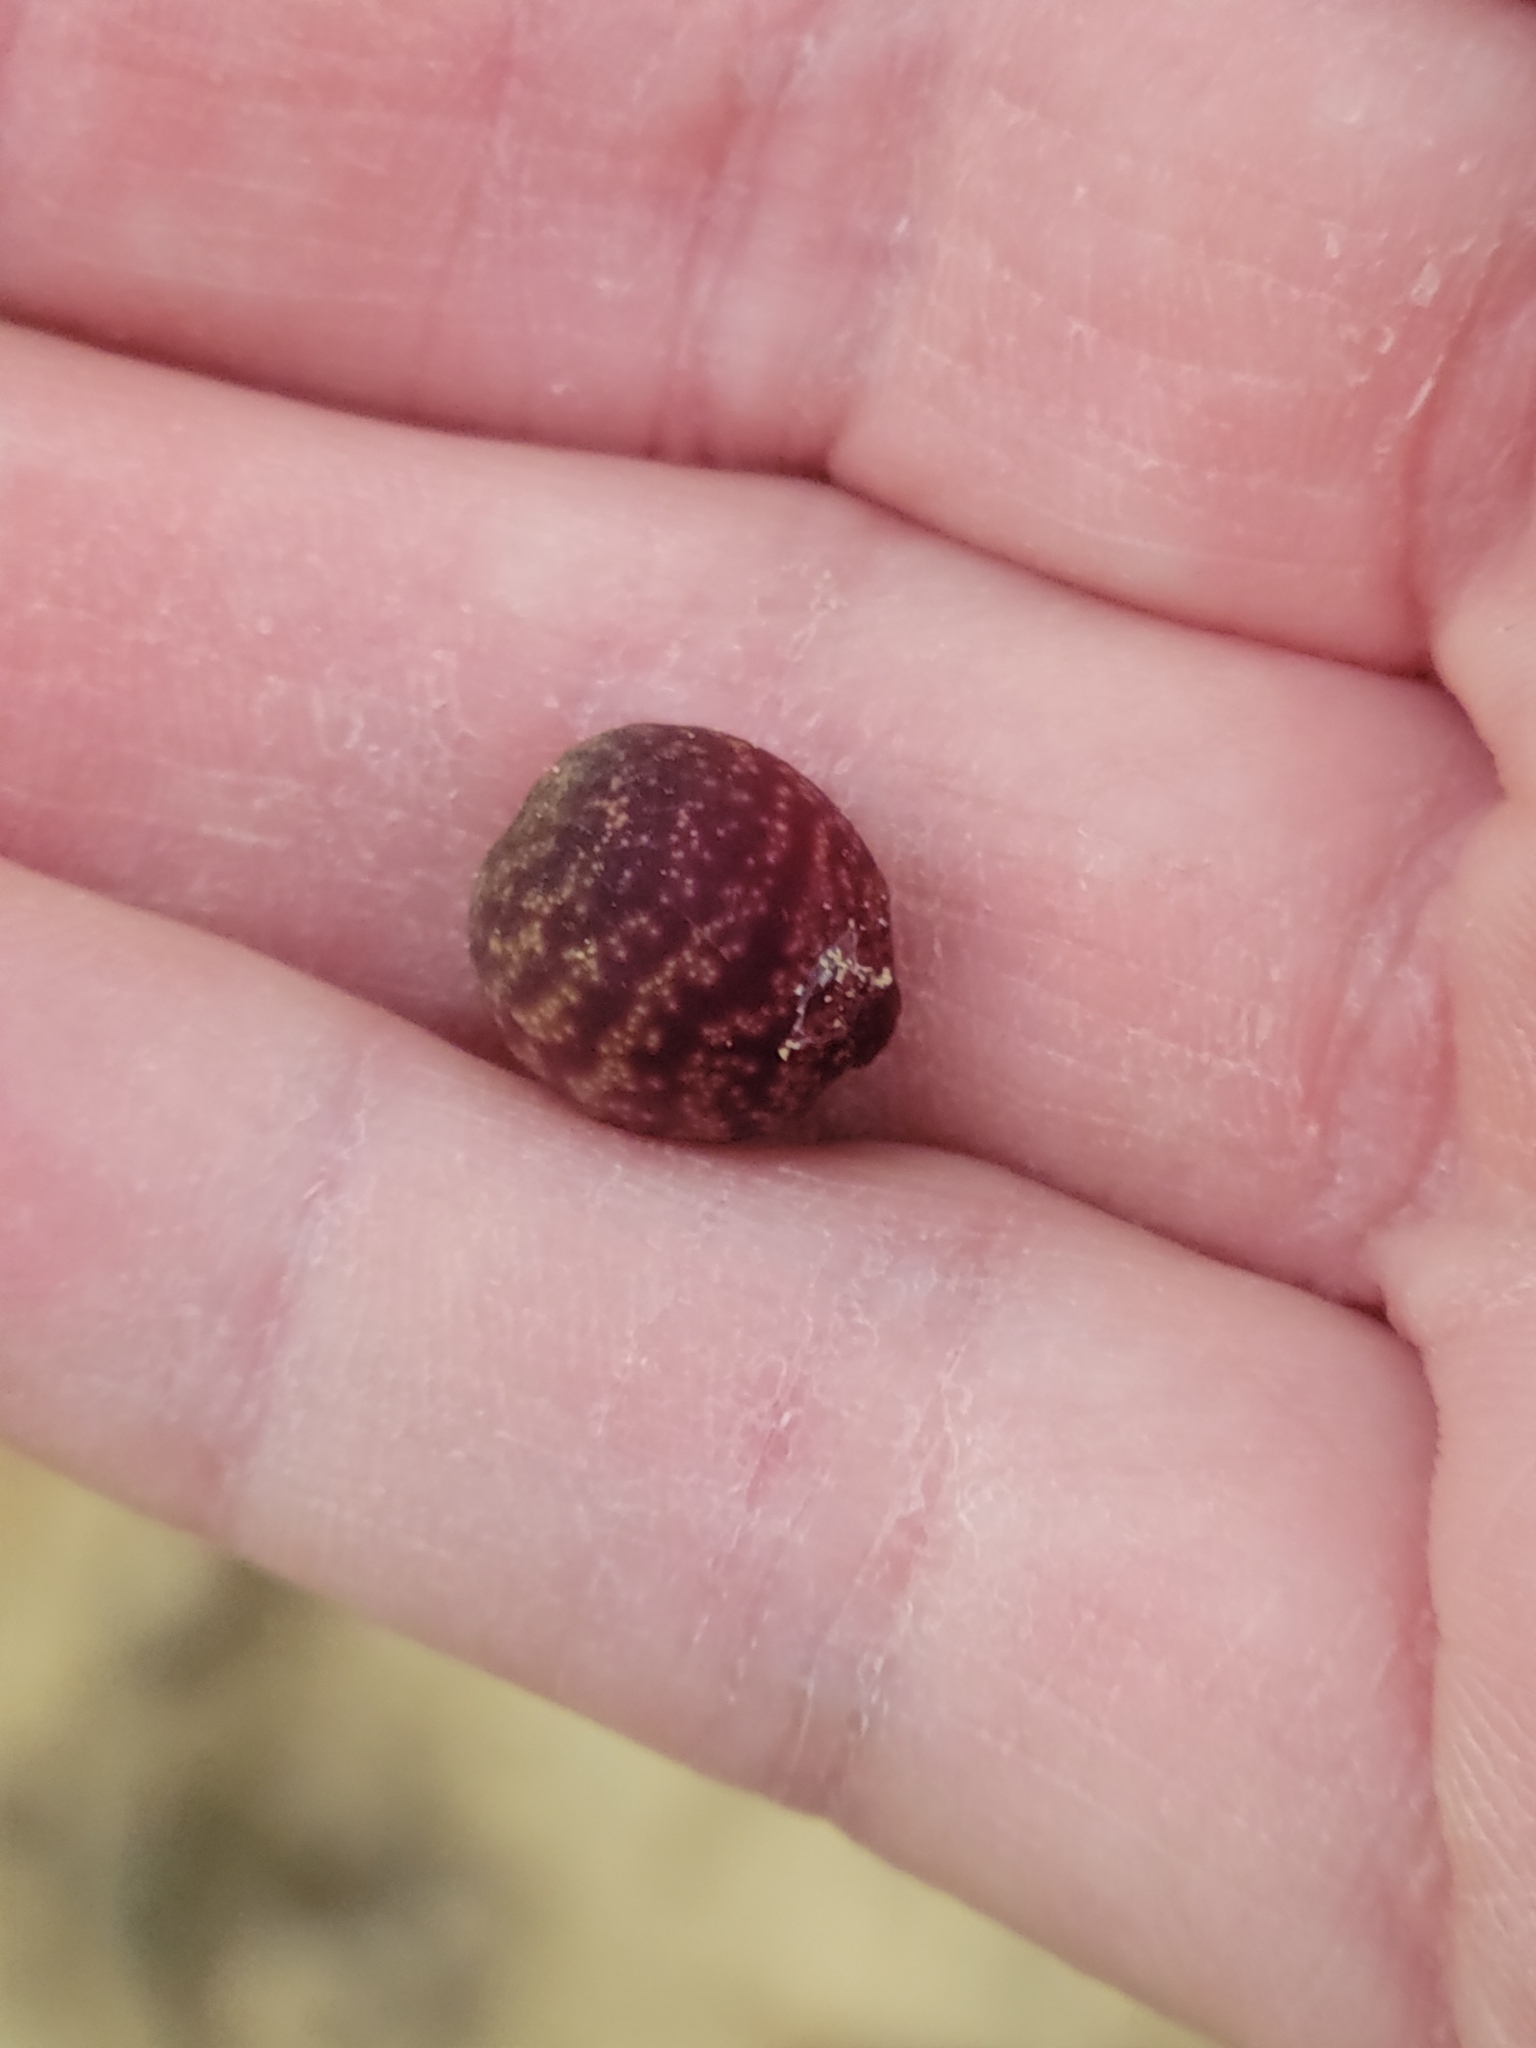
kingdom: Animalia
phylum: Arthropoda
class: Insecta
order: Hymenoptera
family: Cynipidae
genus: Kokkocynips
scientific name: Kokkocynips imbricariae
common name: Banded bullet gall wasp
